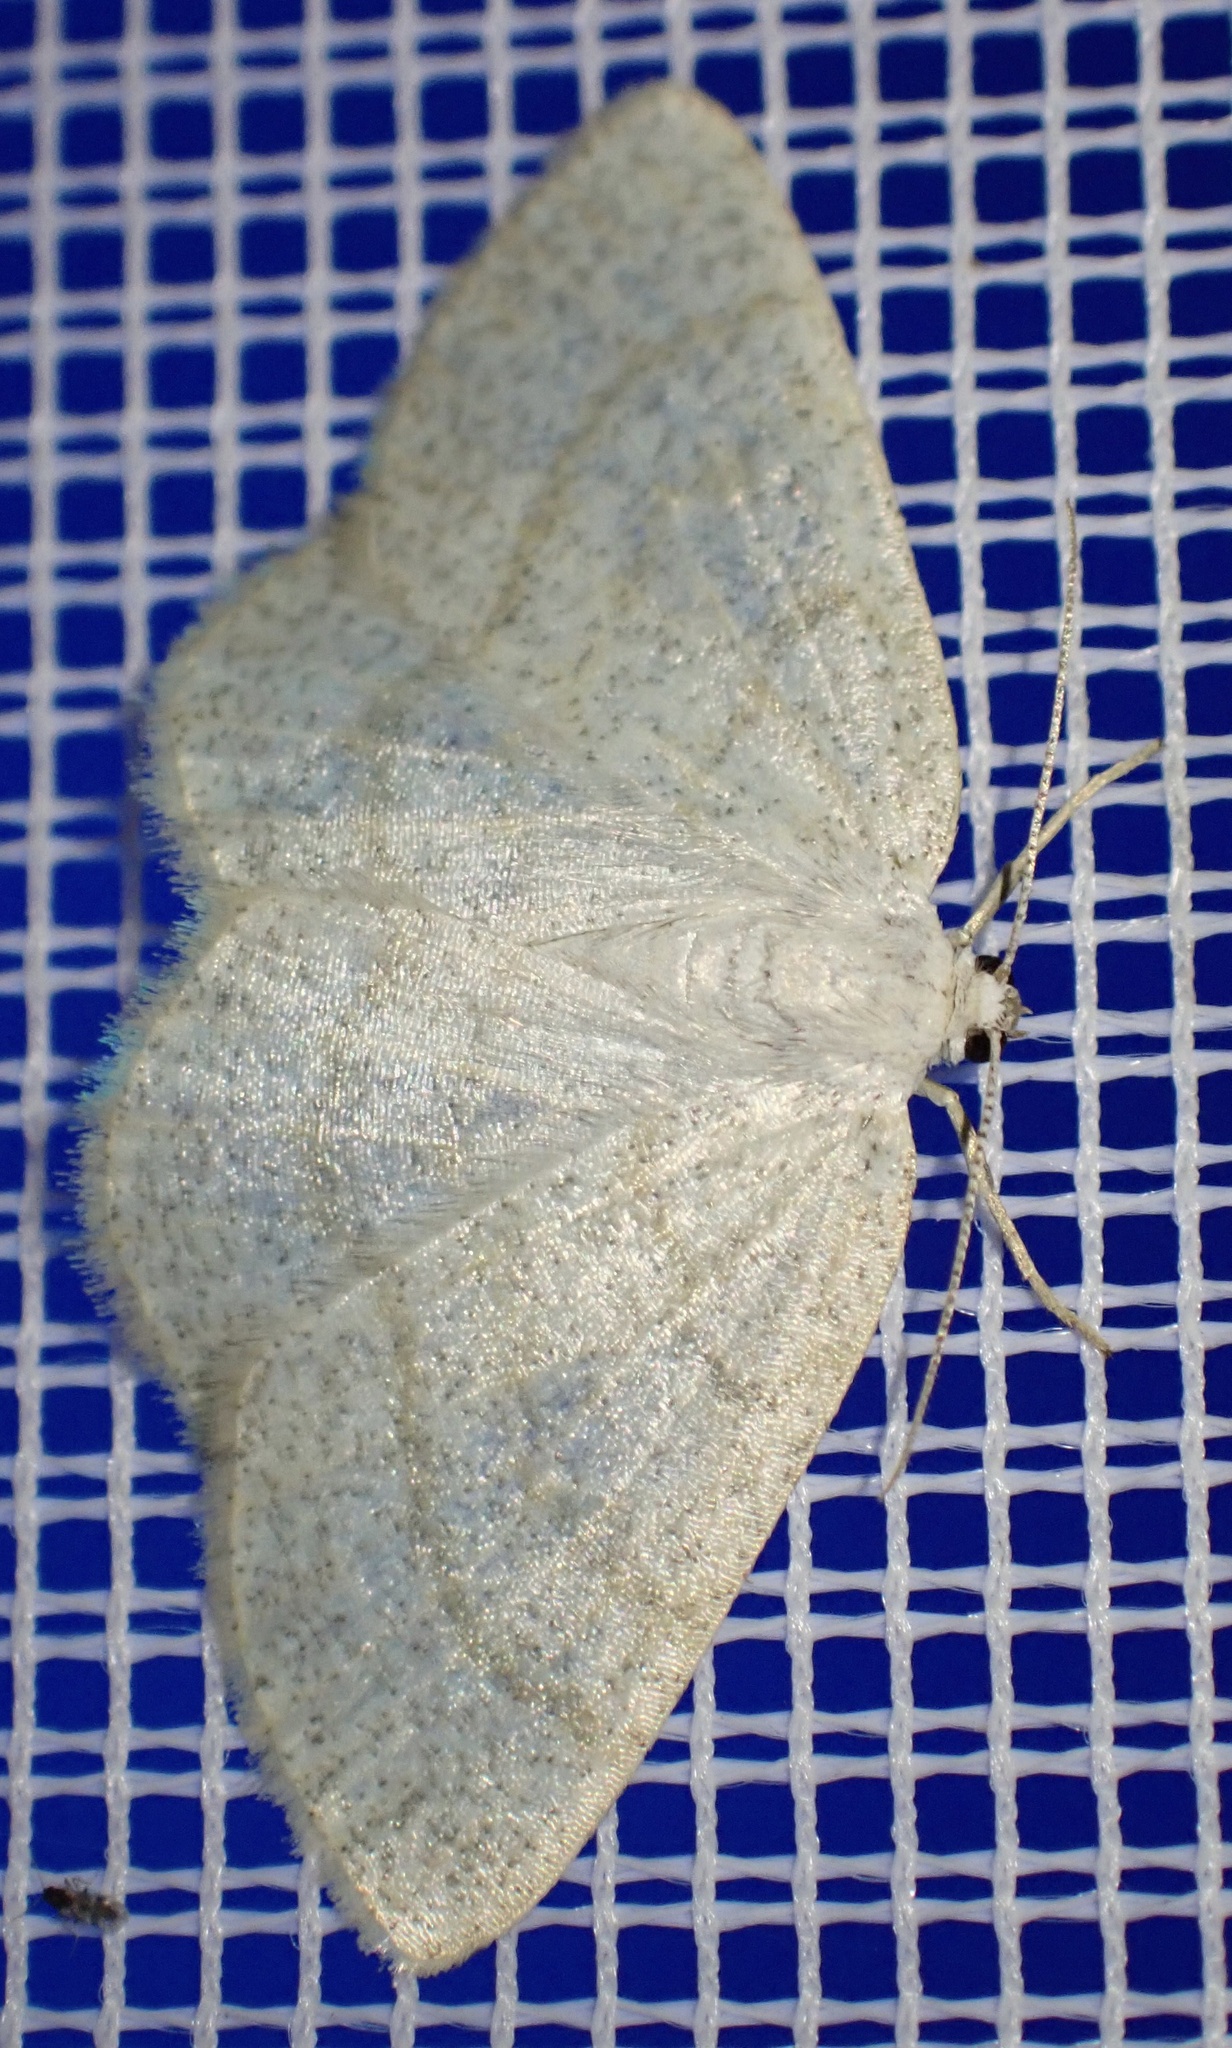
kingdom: Animalia
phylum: Arthropoda
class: Insecta
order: Lepidoptera
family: Geometridae
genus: Cabera
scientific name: Cabera exanthemata
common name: Common wave
